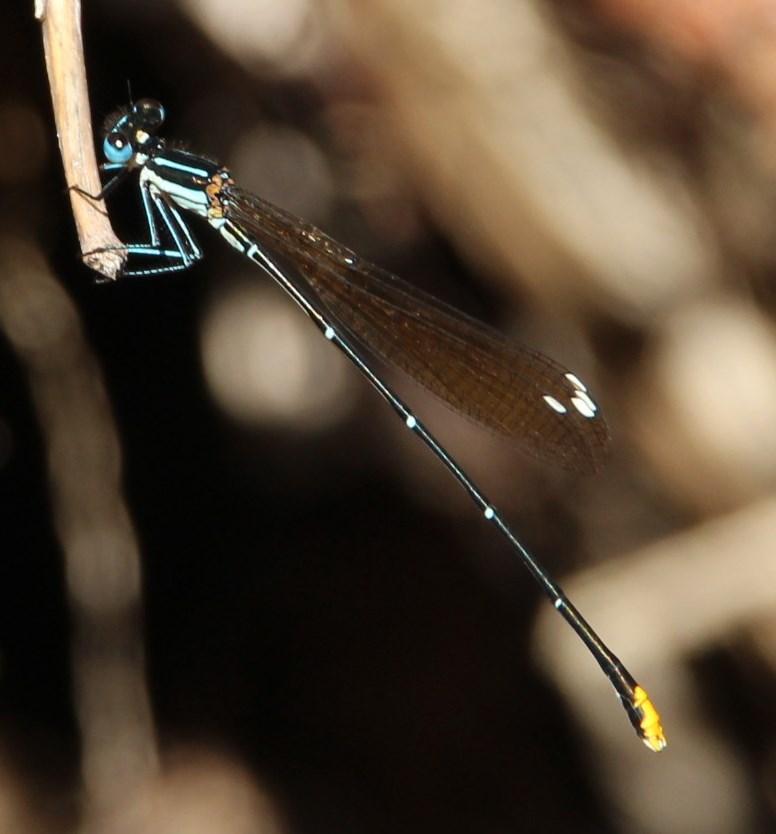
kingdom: Animalia
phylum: Arthropoda
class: Insecta
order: Odonata
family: Platycnemididae
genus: Allocnemis
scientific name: Allocnemis leucosticta
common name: Goldtail
